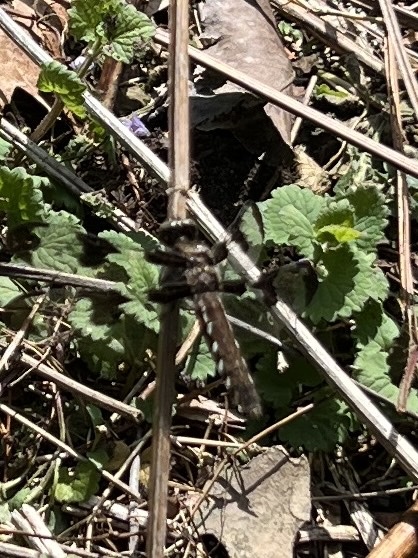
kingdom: Animalia
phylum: Arthropoda
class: Insecta
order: Odonata
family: Libellulidae
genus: Plathemis
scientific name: Plathemis lydia
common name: Common whitetail
